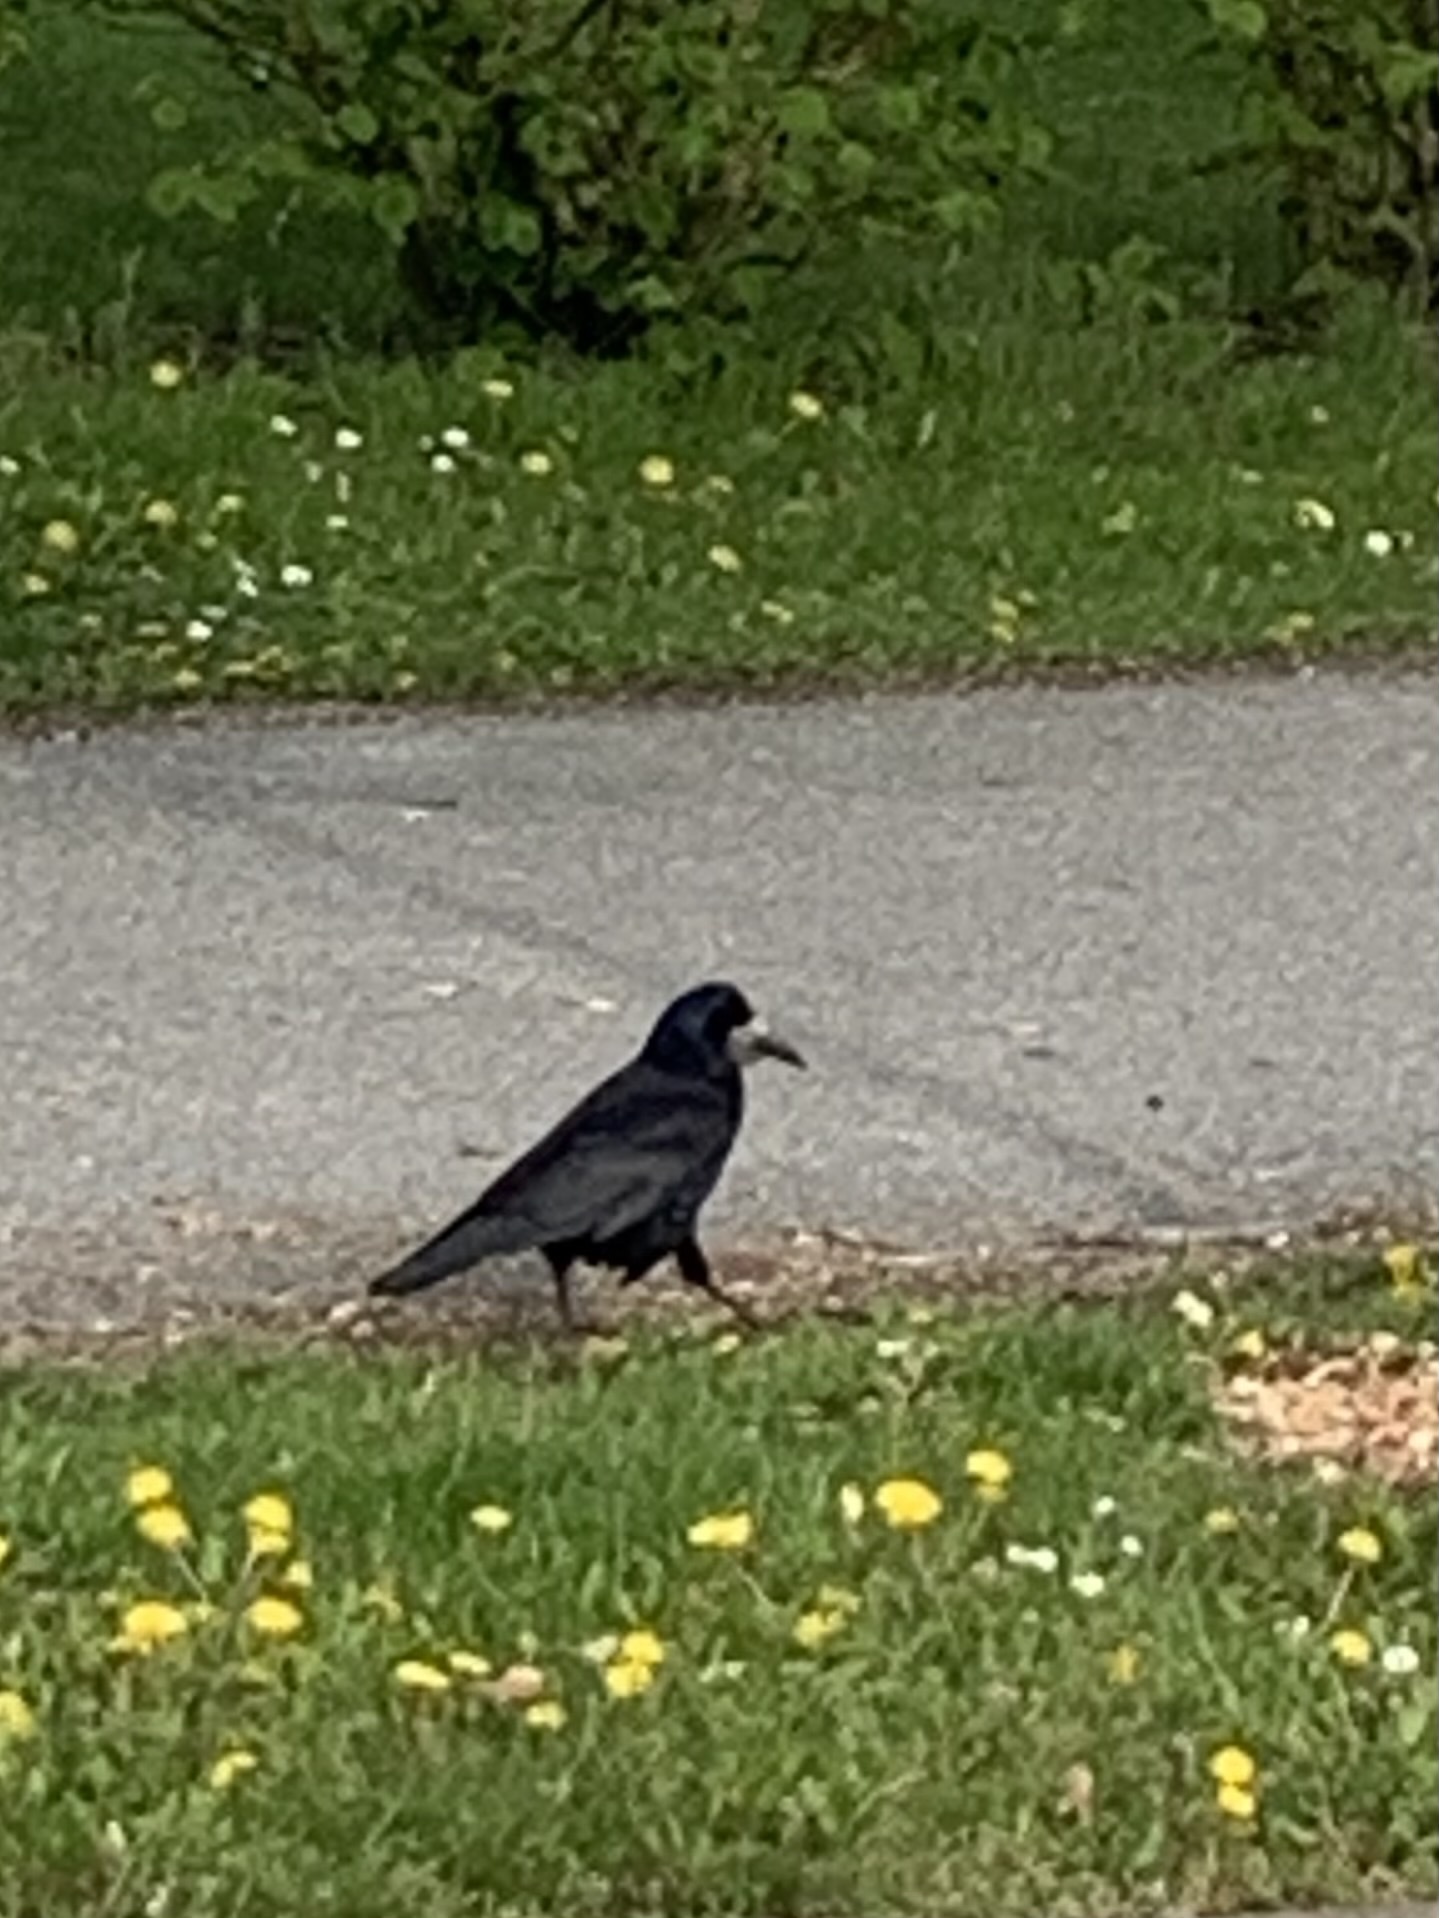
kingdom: Animalia
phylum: Chordata
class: Aves
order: Passeriformes
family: Corvidae
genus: Corvus
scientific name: Corvus frugilegus
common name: Rook
